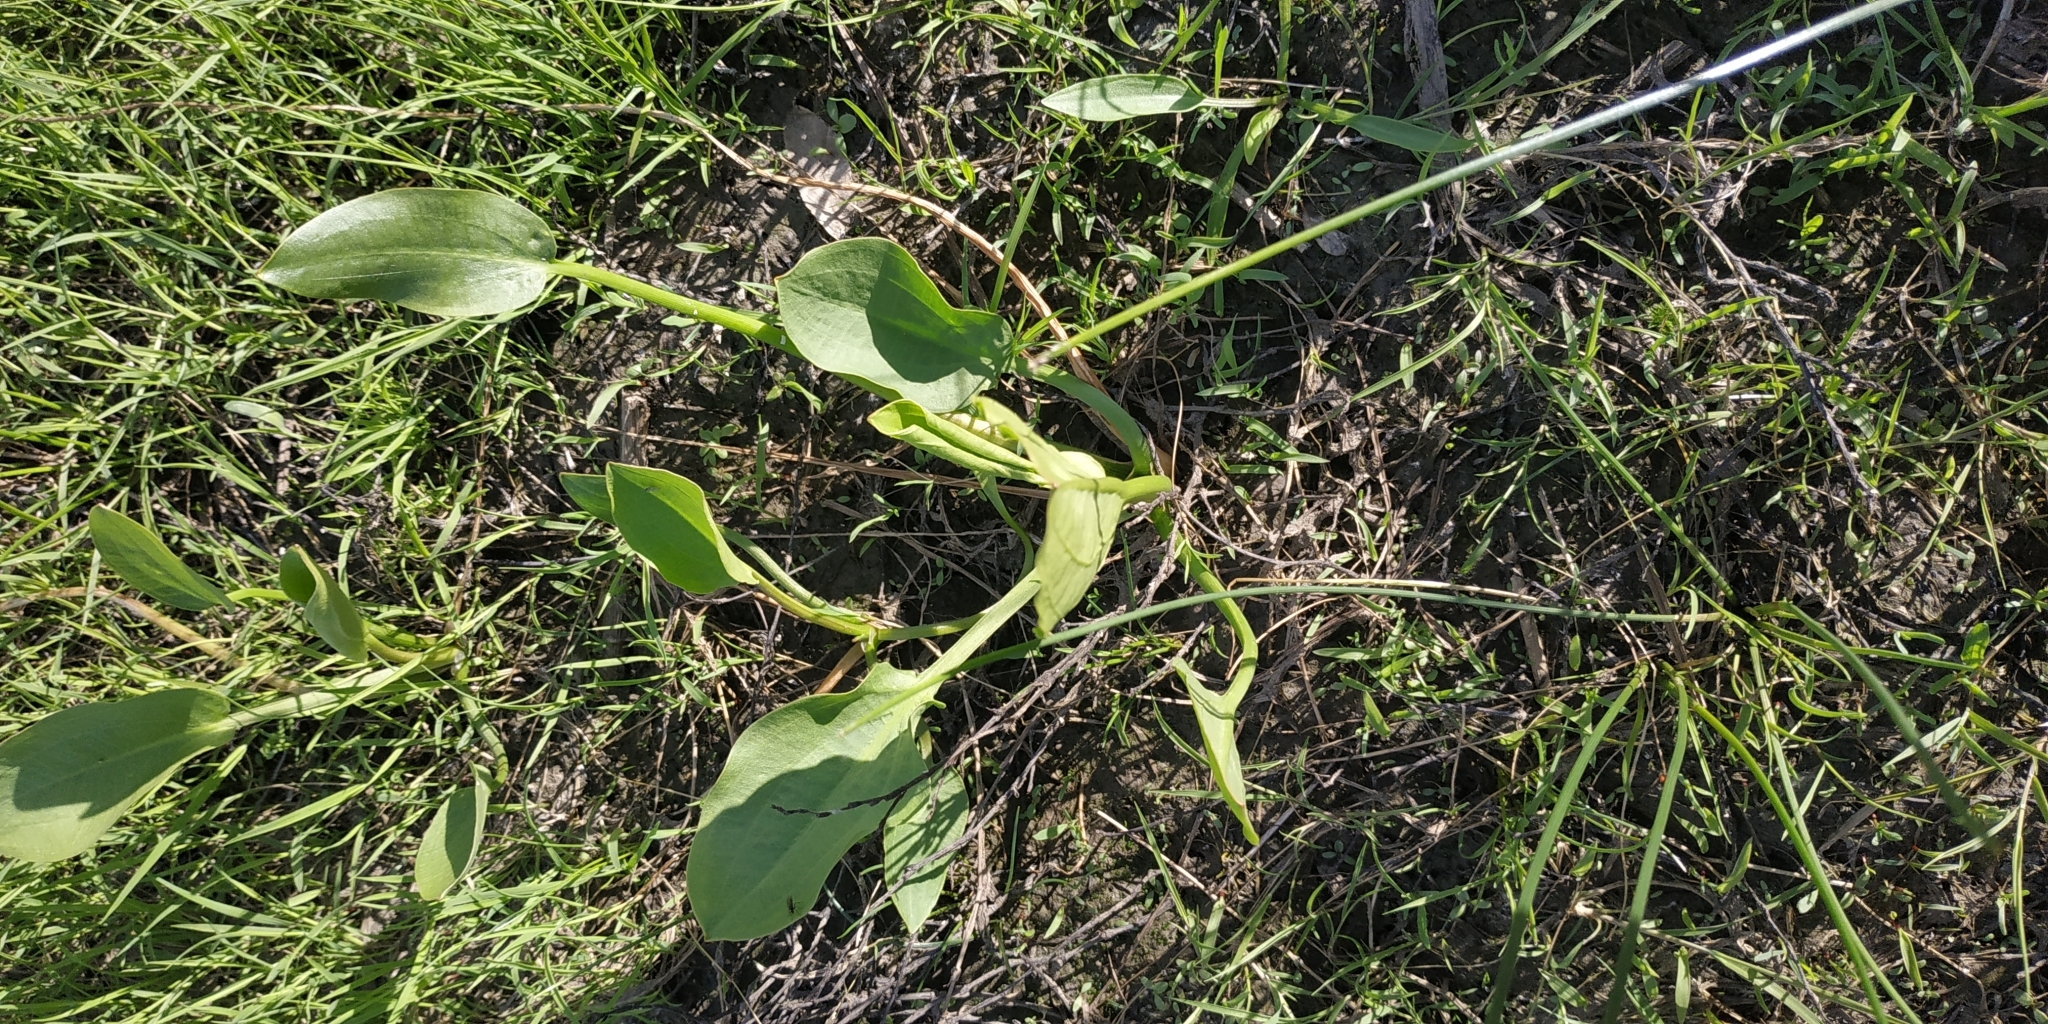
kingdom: Plantae
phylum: Tracheophyta
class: Liliopsida
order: Alismatales
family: Alismataceae
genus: Alisma
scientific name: Alisma plantago-aquatica
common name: Water-plantain
